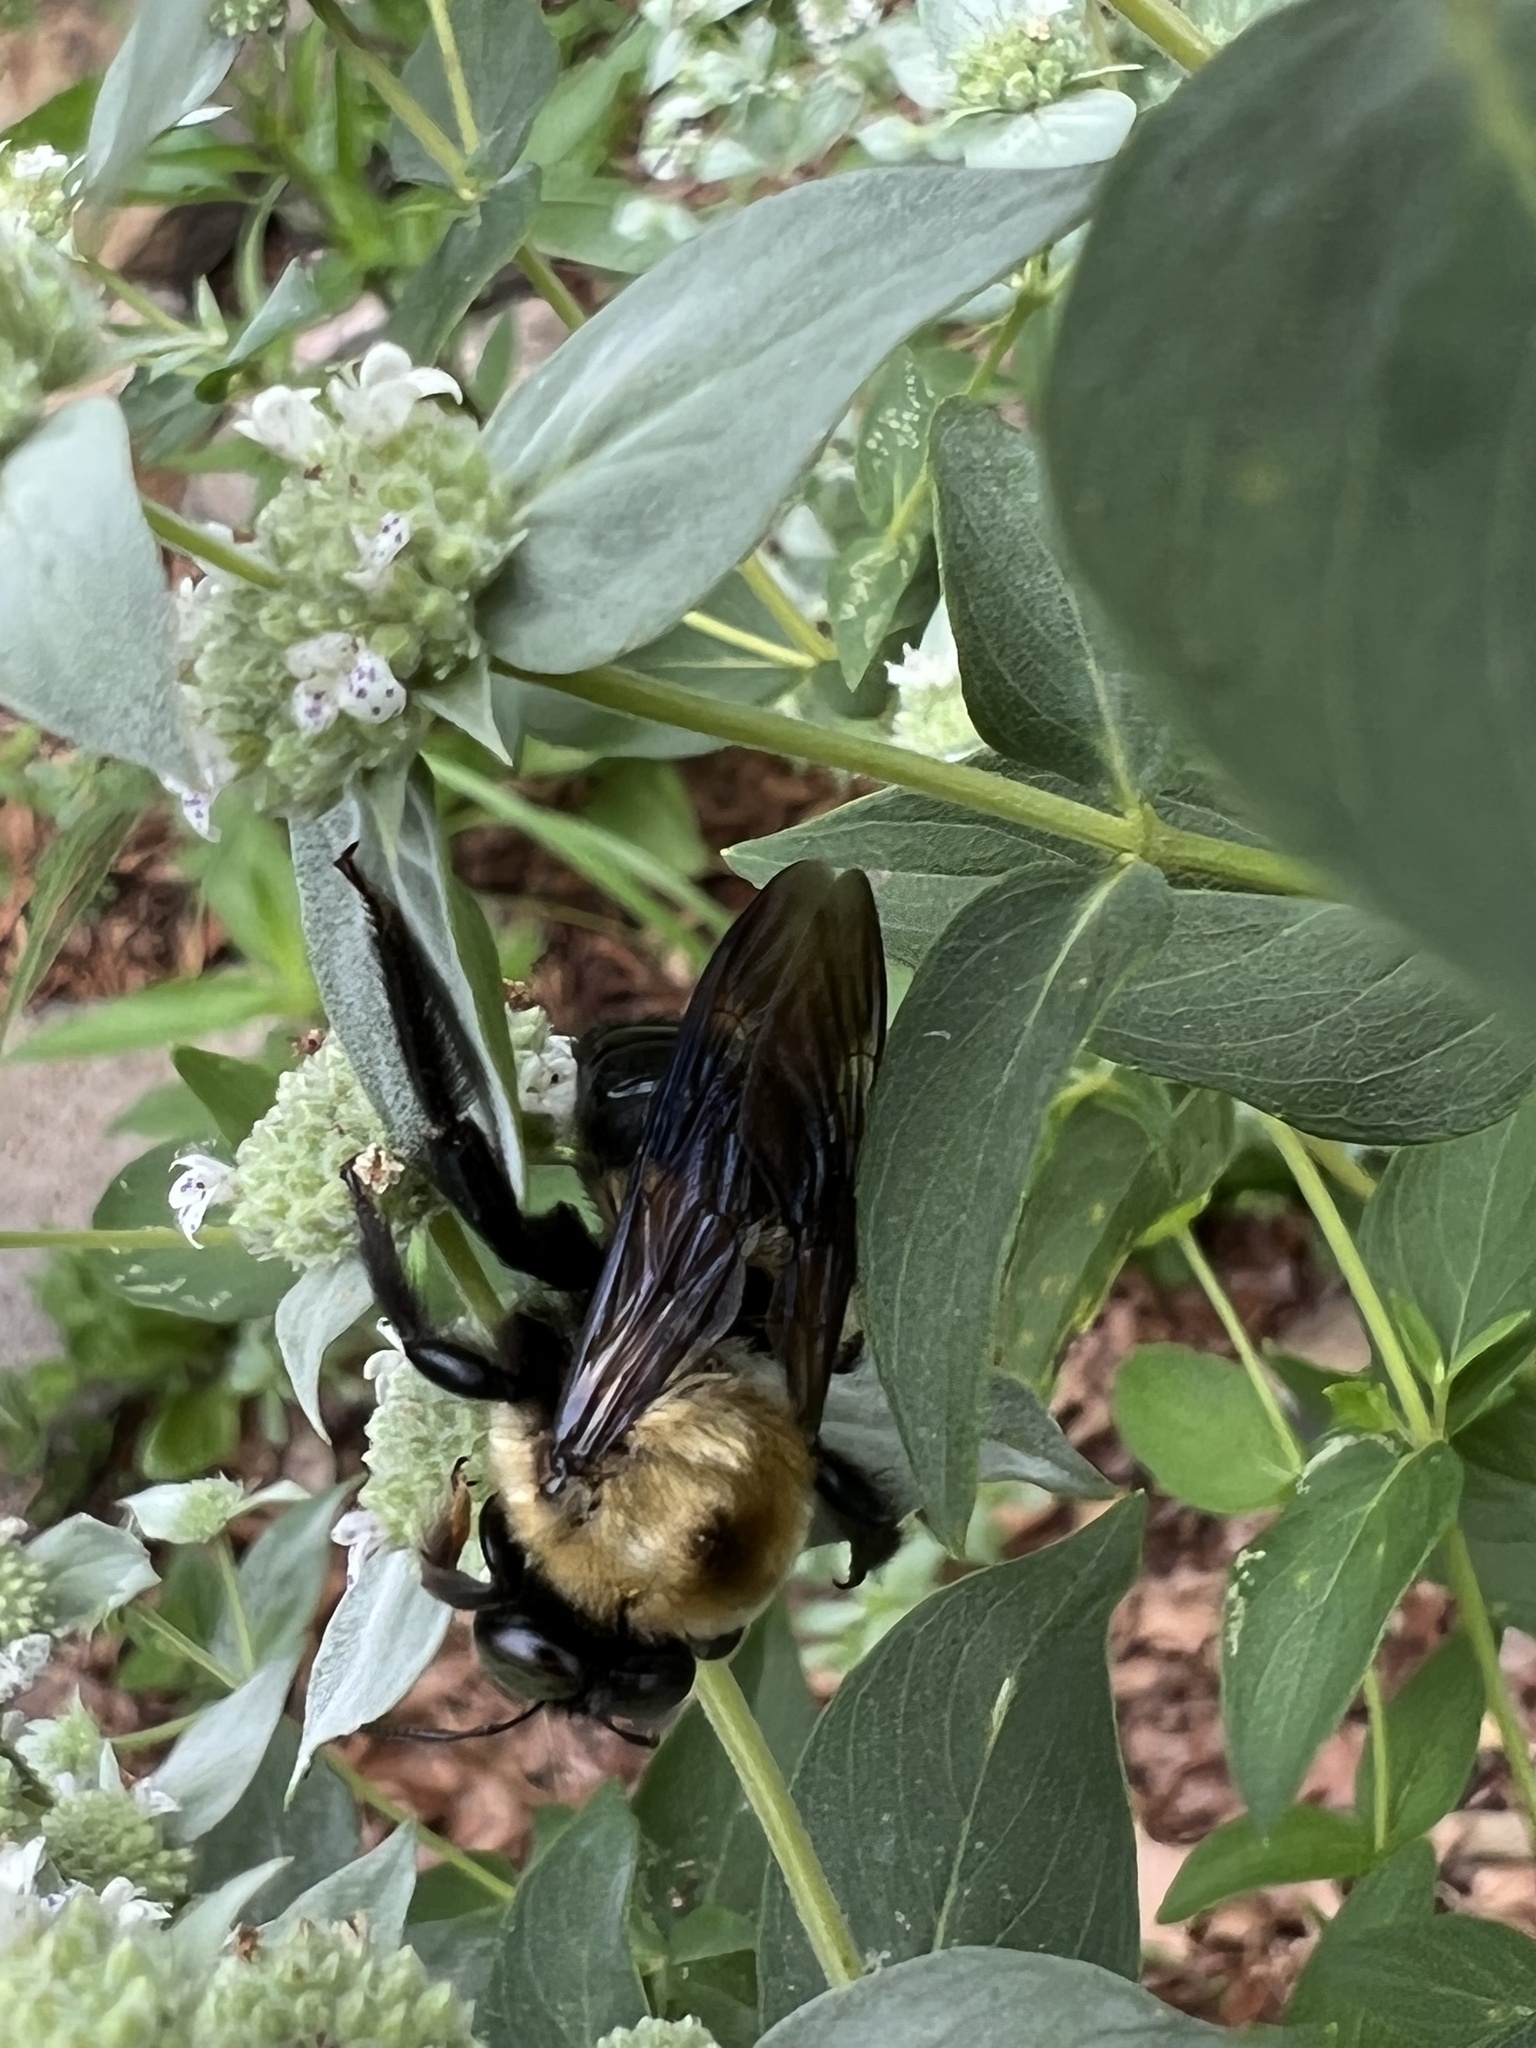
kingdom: Animalia
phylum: Arthropoda
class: Insecta
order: Hymenoptera
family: Apidae
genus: Xylocopa
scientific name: Xylocopa virginica
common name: Carpenter bee
